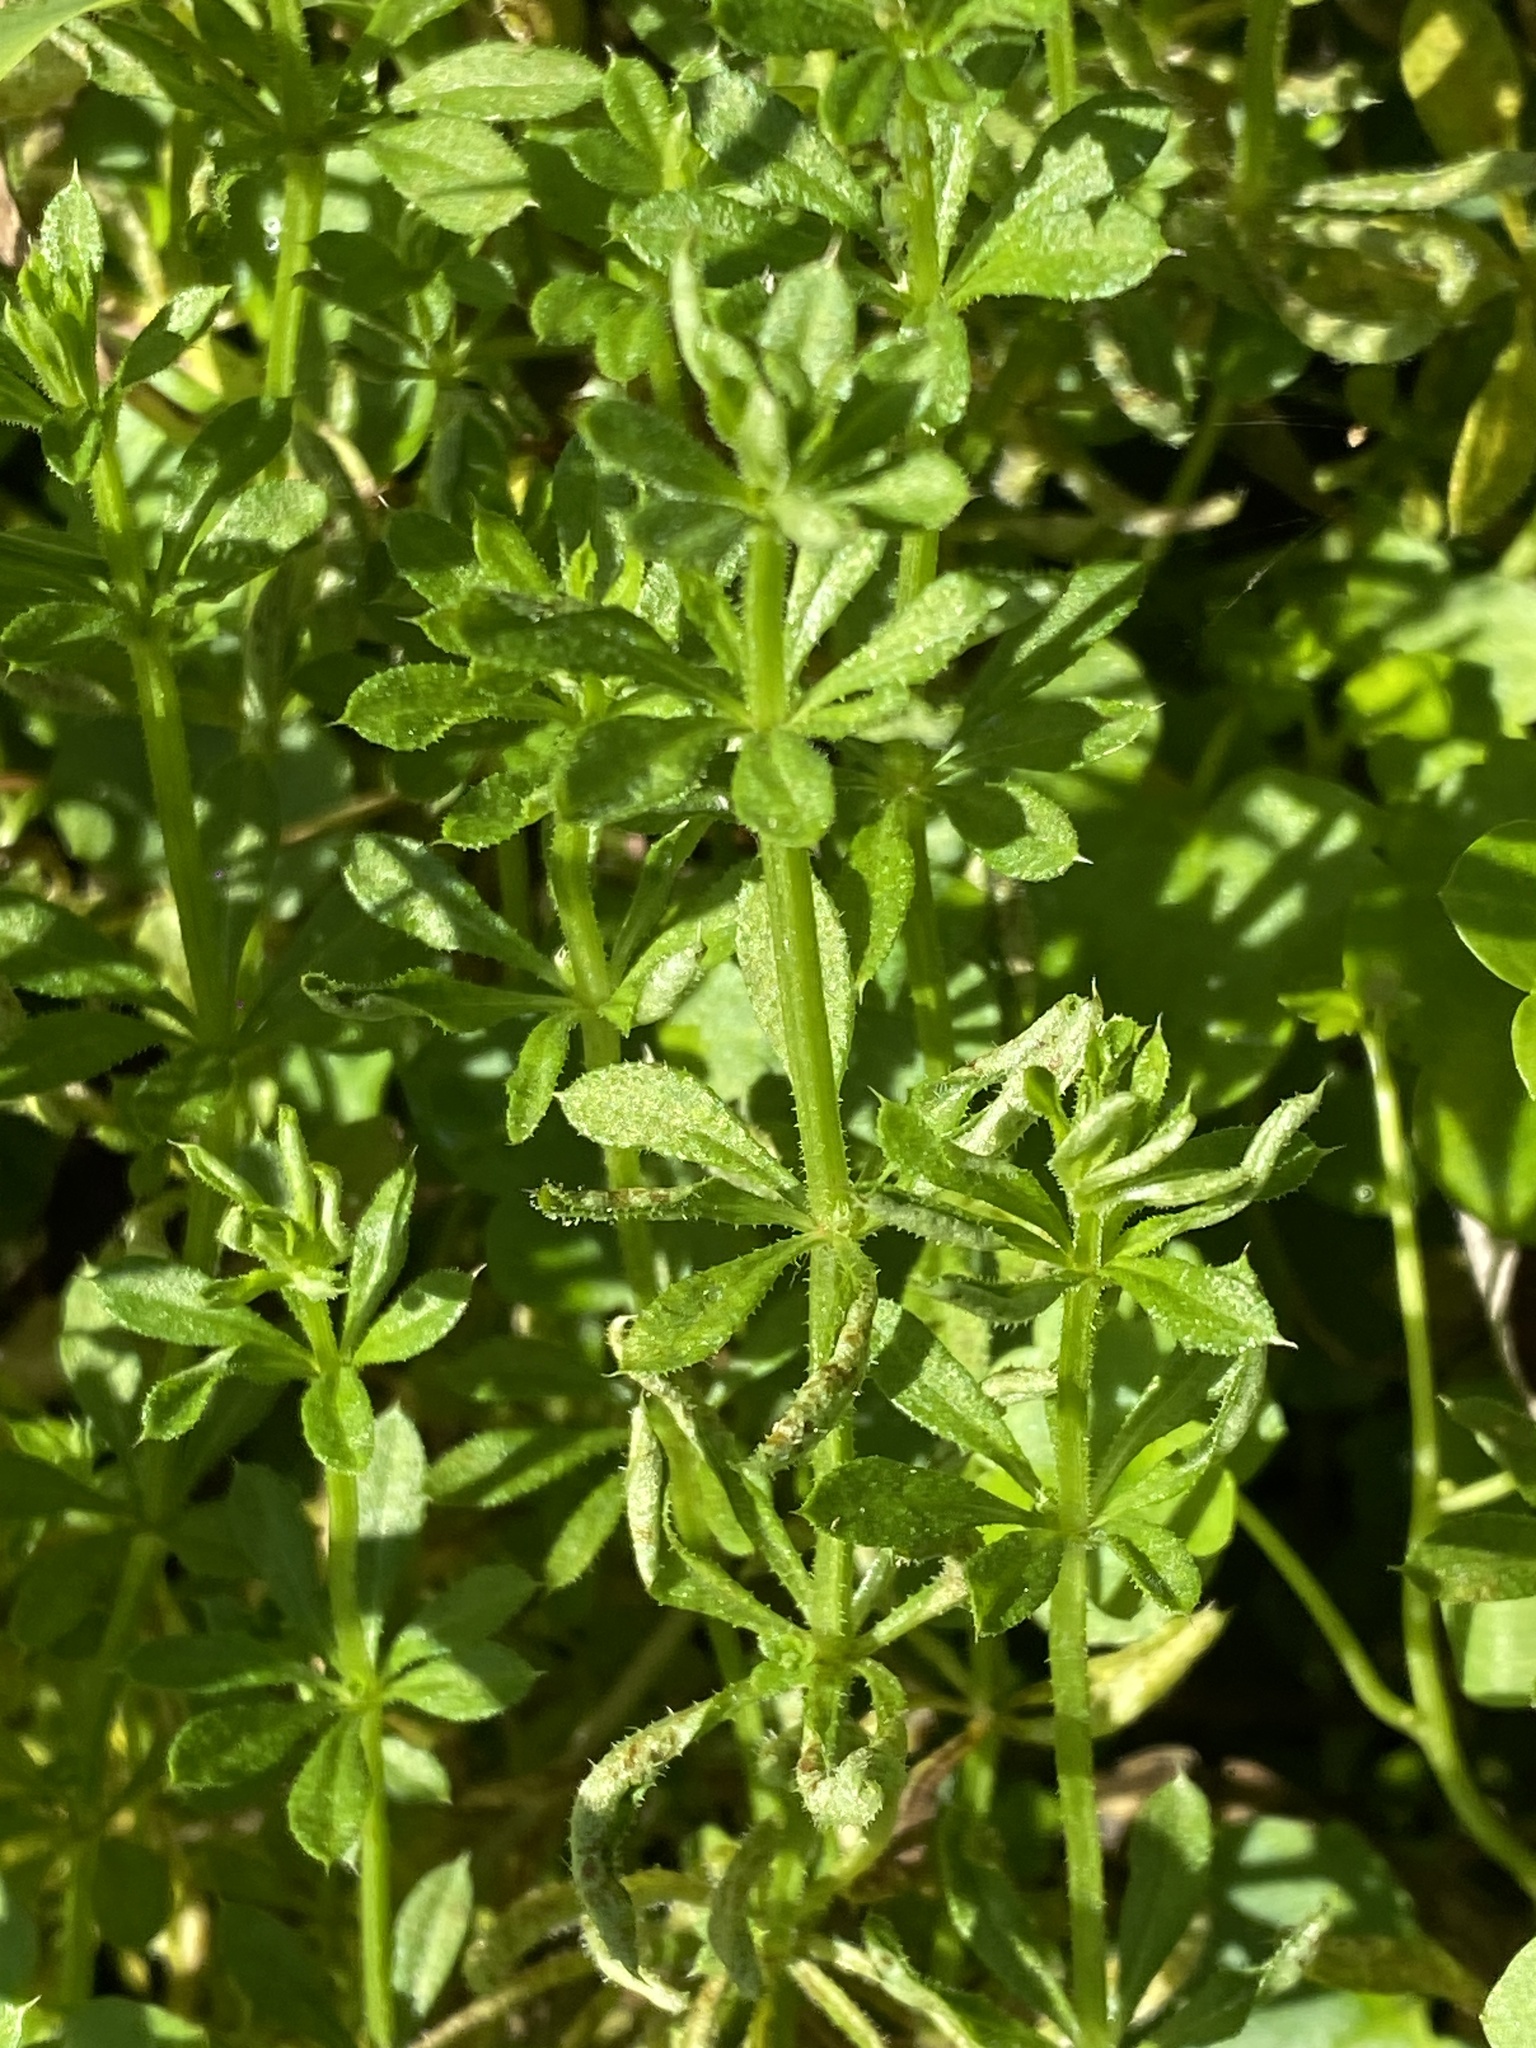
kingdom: Plantae
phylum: Tracheophyta
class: Magnoliopsida
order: Gentianales
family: Rubiaceae
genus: Galium
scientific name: Galium aparine
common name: Cleavers
